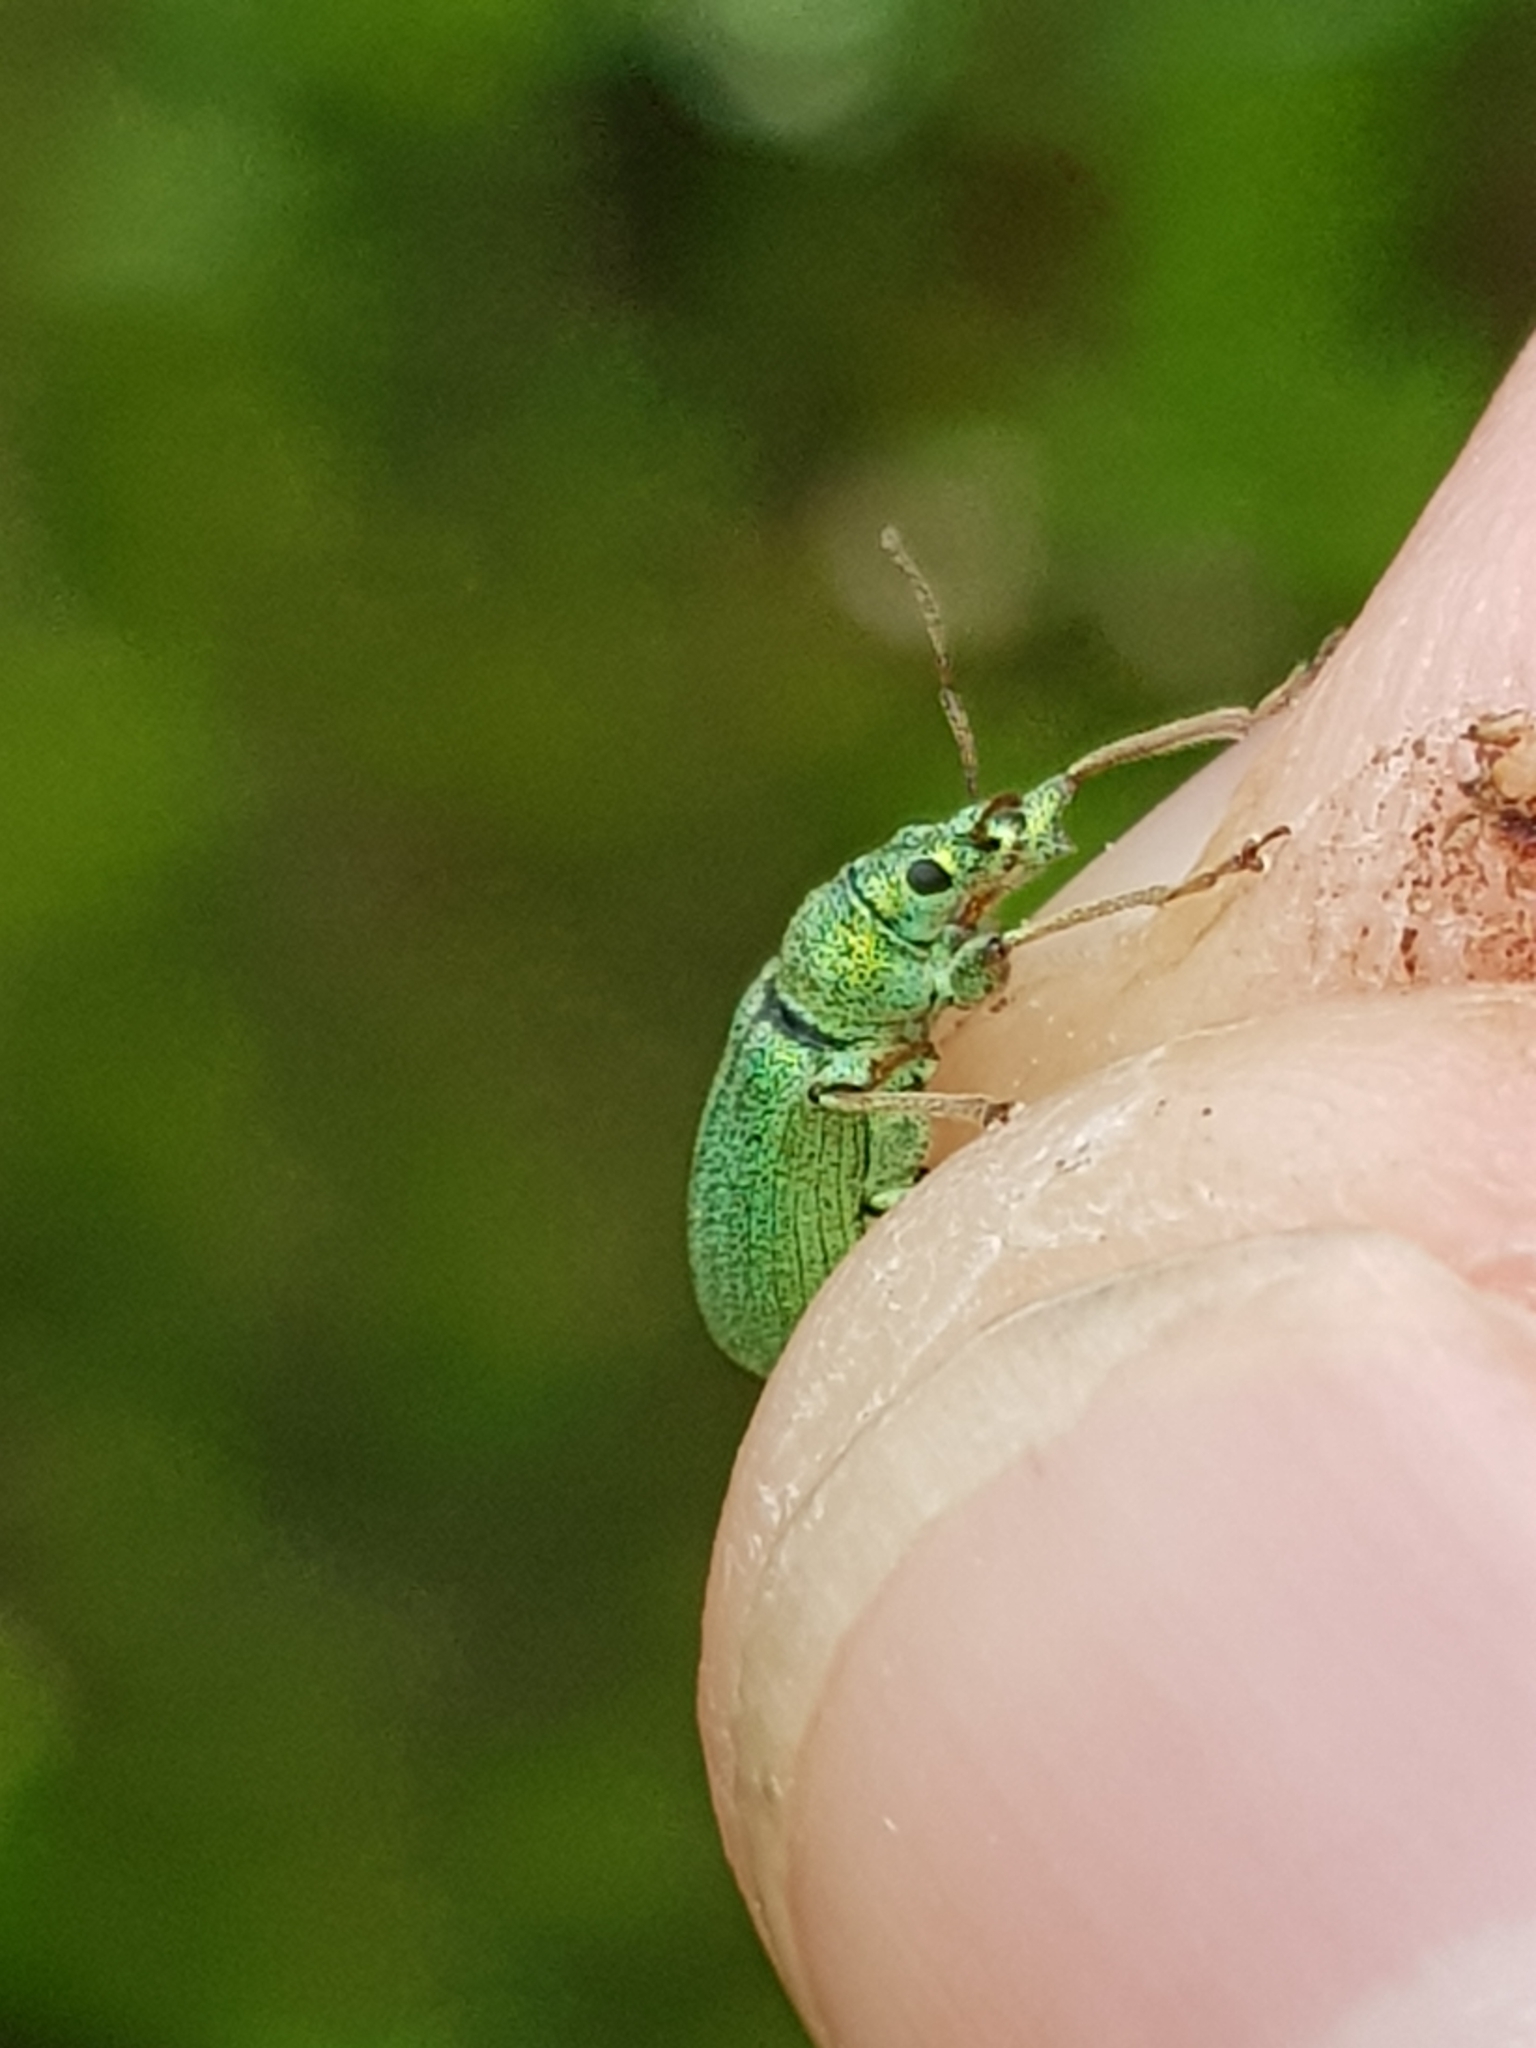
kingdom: Animalia
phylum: Arthropoda
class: Insecta
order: Coleoptera
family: Curculionidae
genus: Phyllobius
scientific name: Phyllobius arborator
